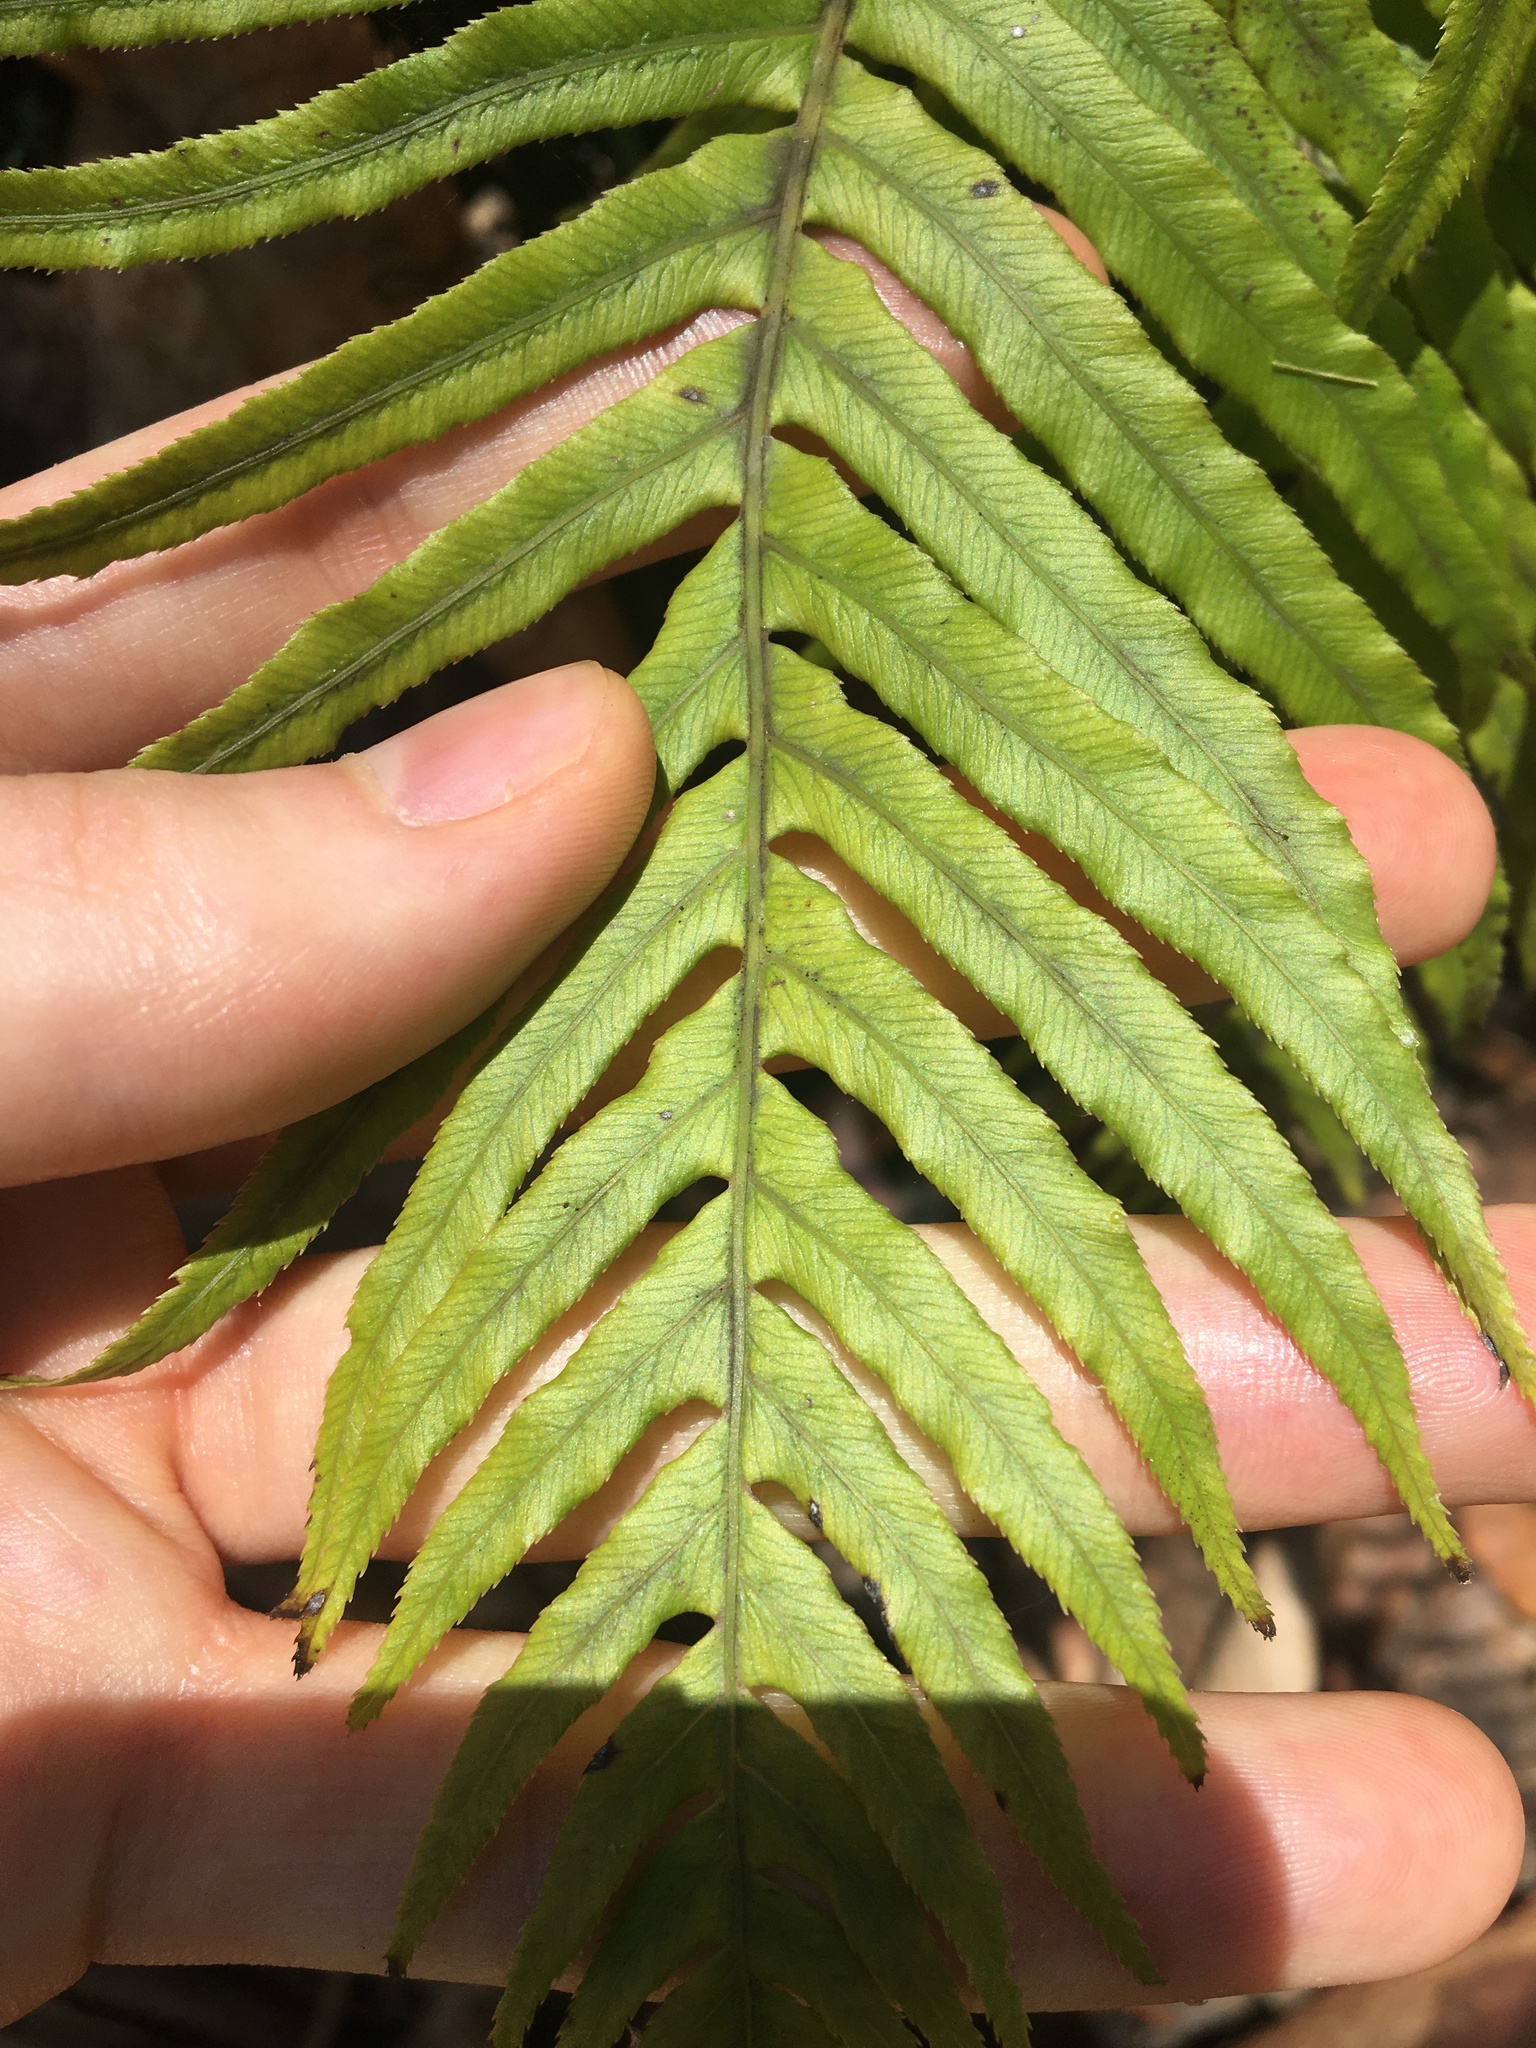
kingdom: Plantae
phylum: Tracheophyta
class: Polypodiopsida
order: Polypodiales
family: Blechnaceae
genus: Oceaniopteris
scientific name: Oceaniopteris cartilaginea
